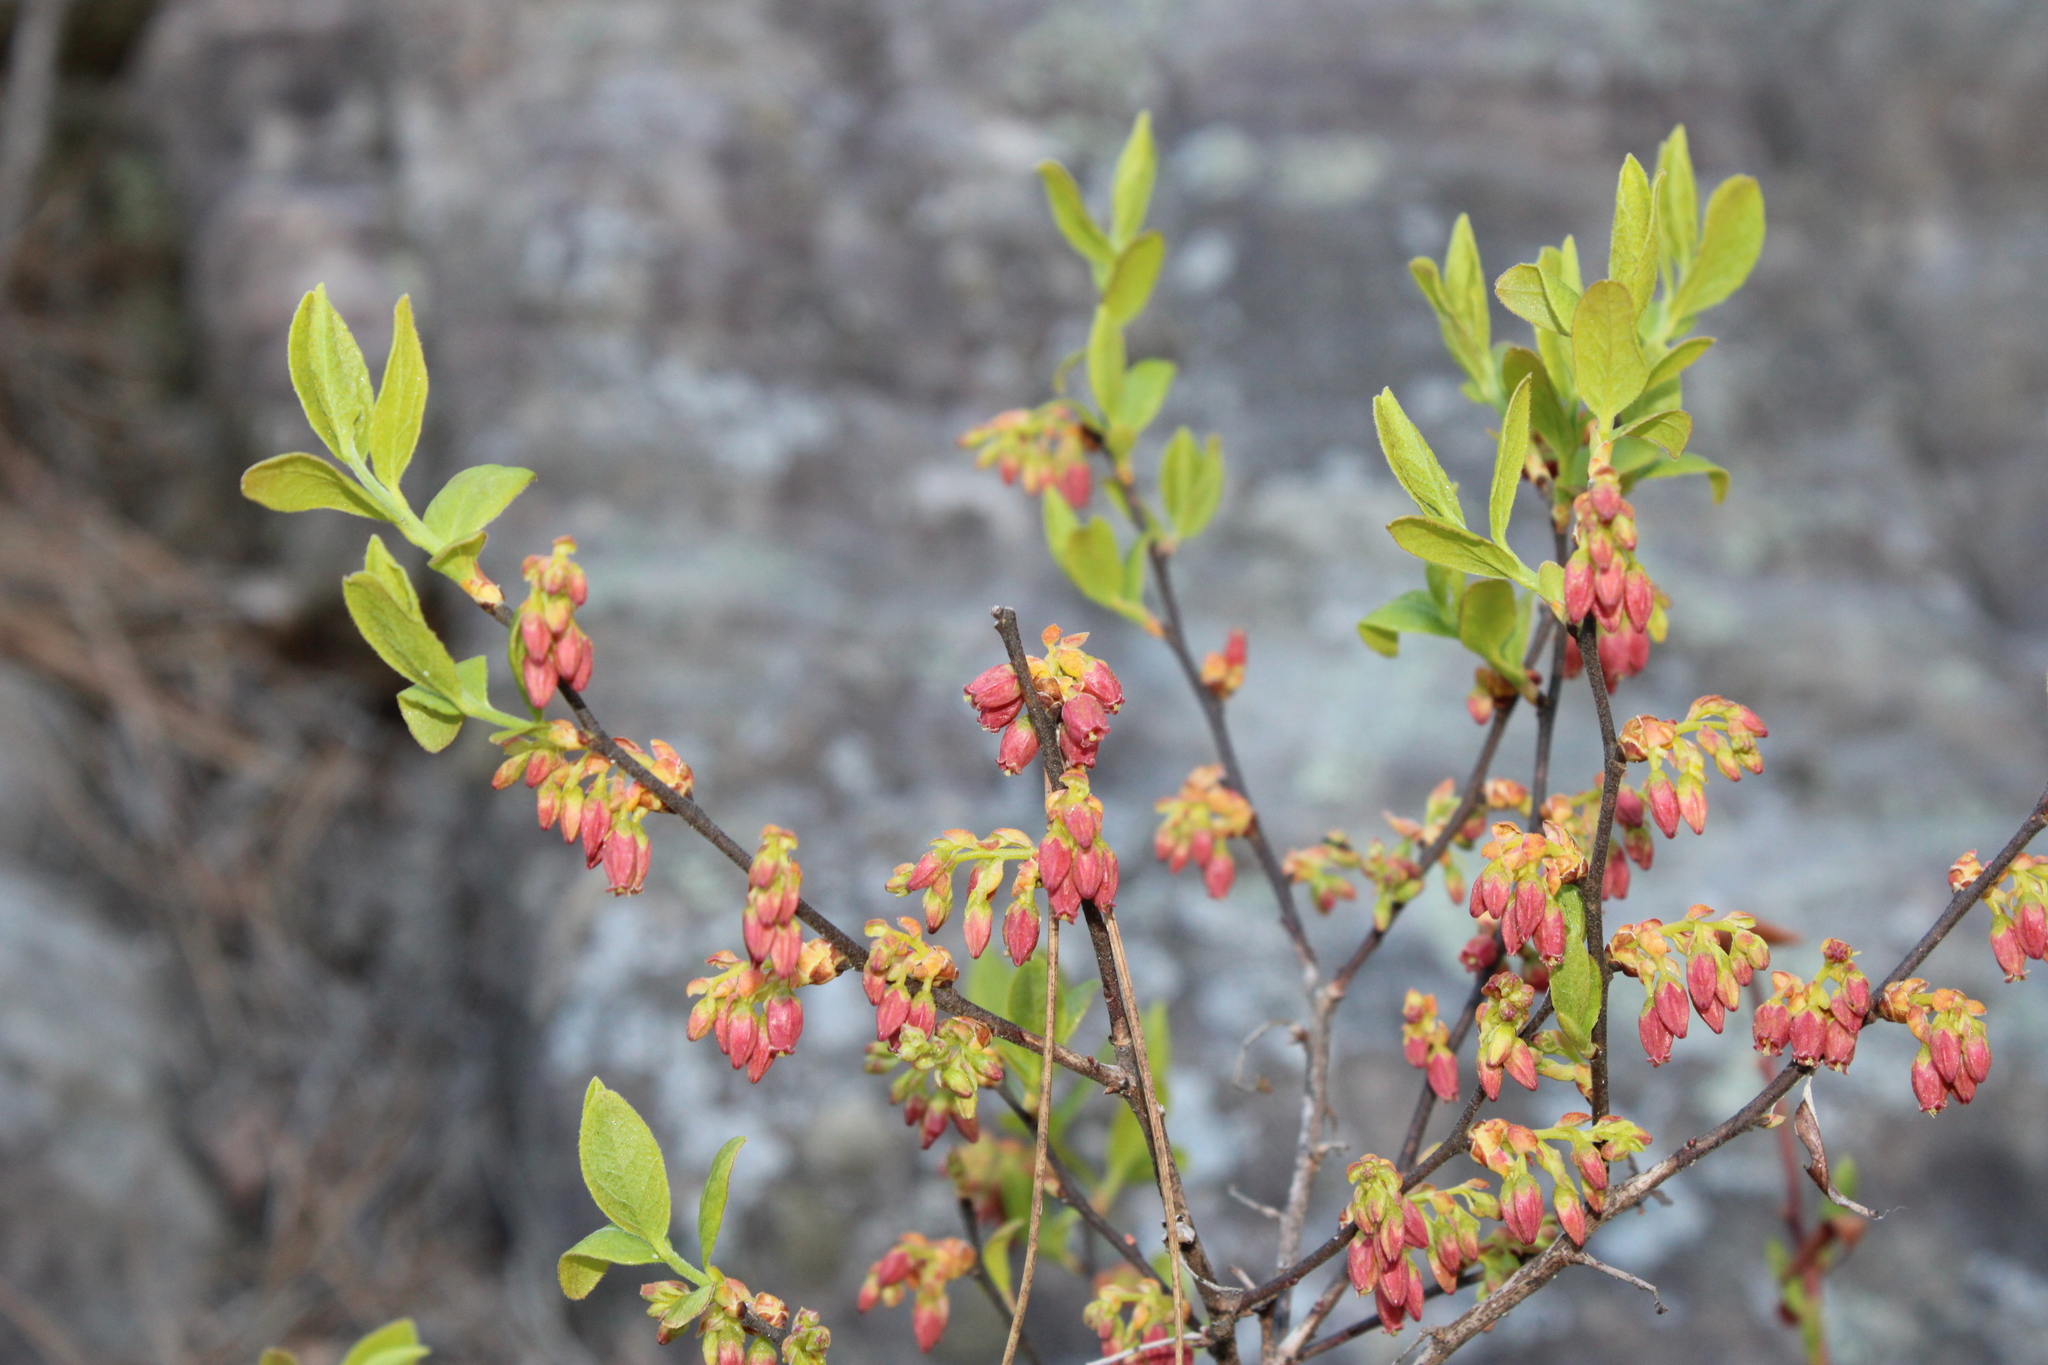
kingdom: Plantae
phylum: Tracheophyta
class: Magnoliopsida
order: Ericales
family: Ericaceae
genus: Gaylussacia
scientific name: Gaylussacia baccata
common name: Black huckleberry
